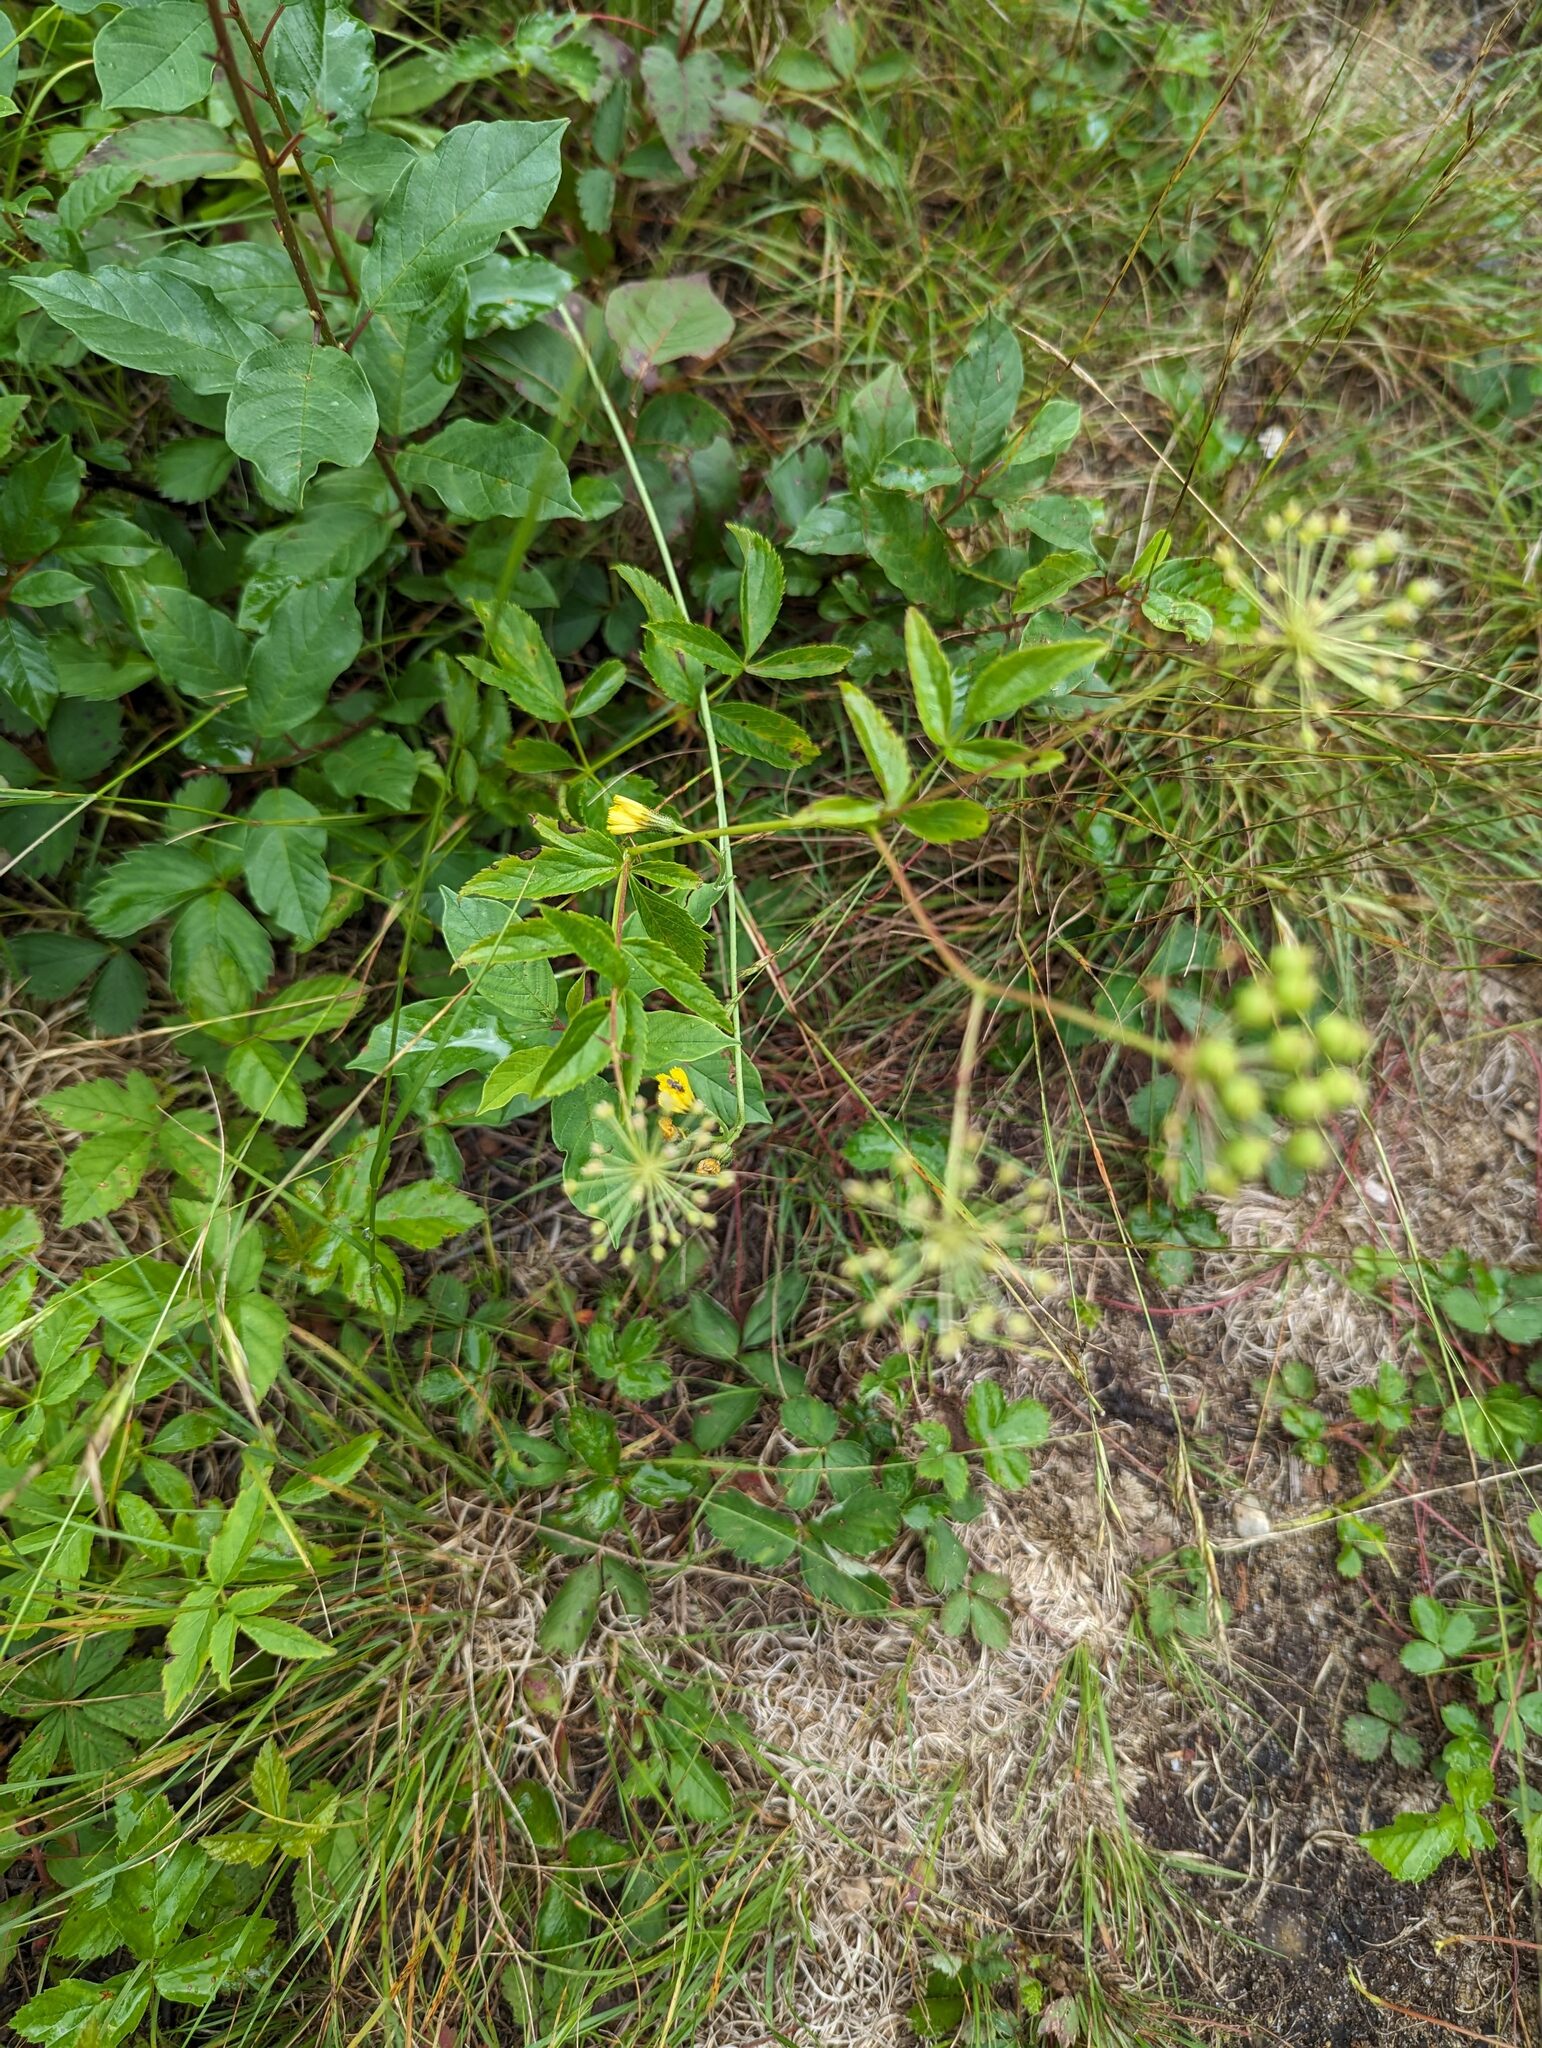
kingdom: Plantae
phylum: Tracheophyta
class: Magnoliopsida
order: Apiales
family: Araliaceae
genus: Aralia
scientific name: Aralia hispida
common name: Bristly sarsaparilla
